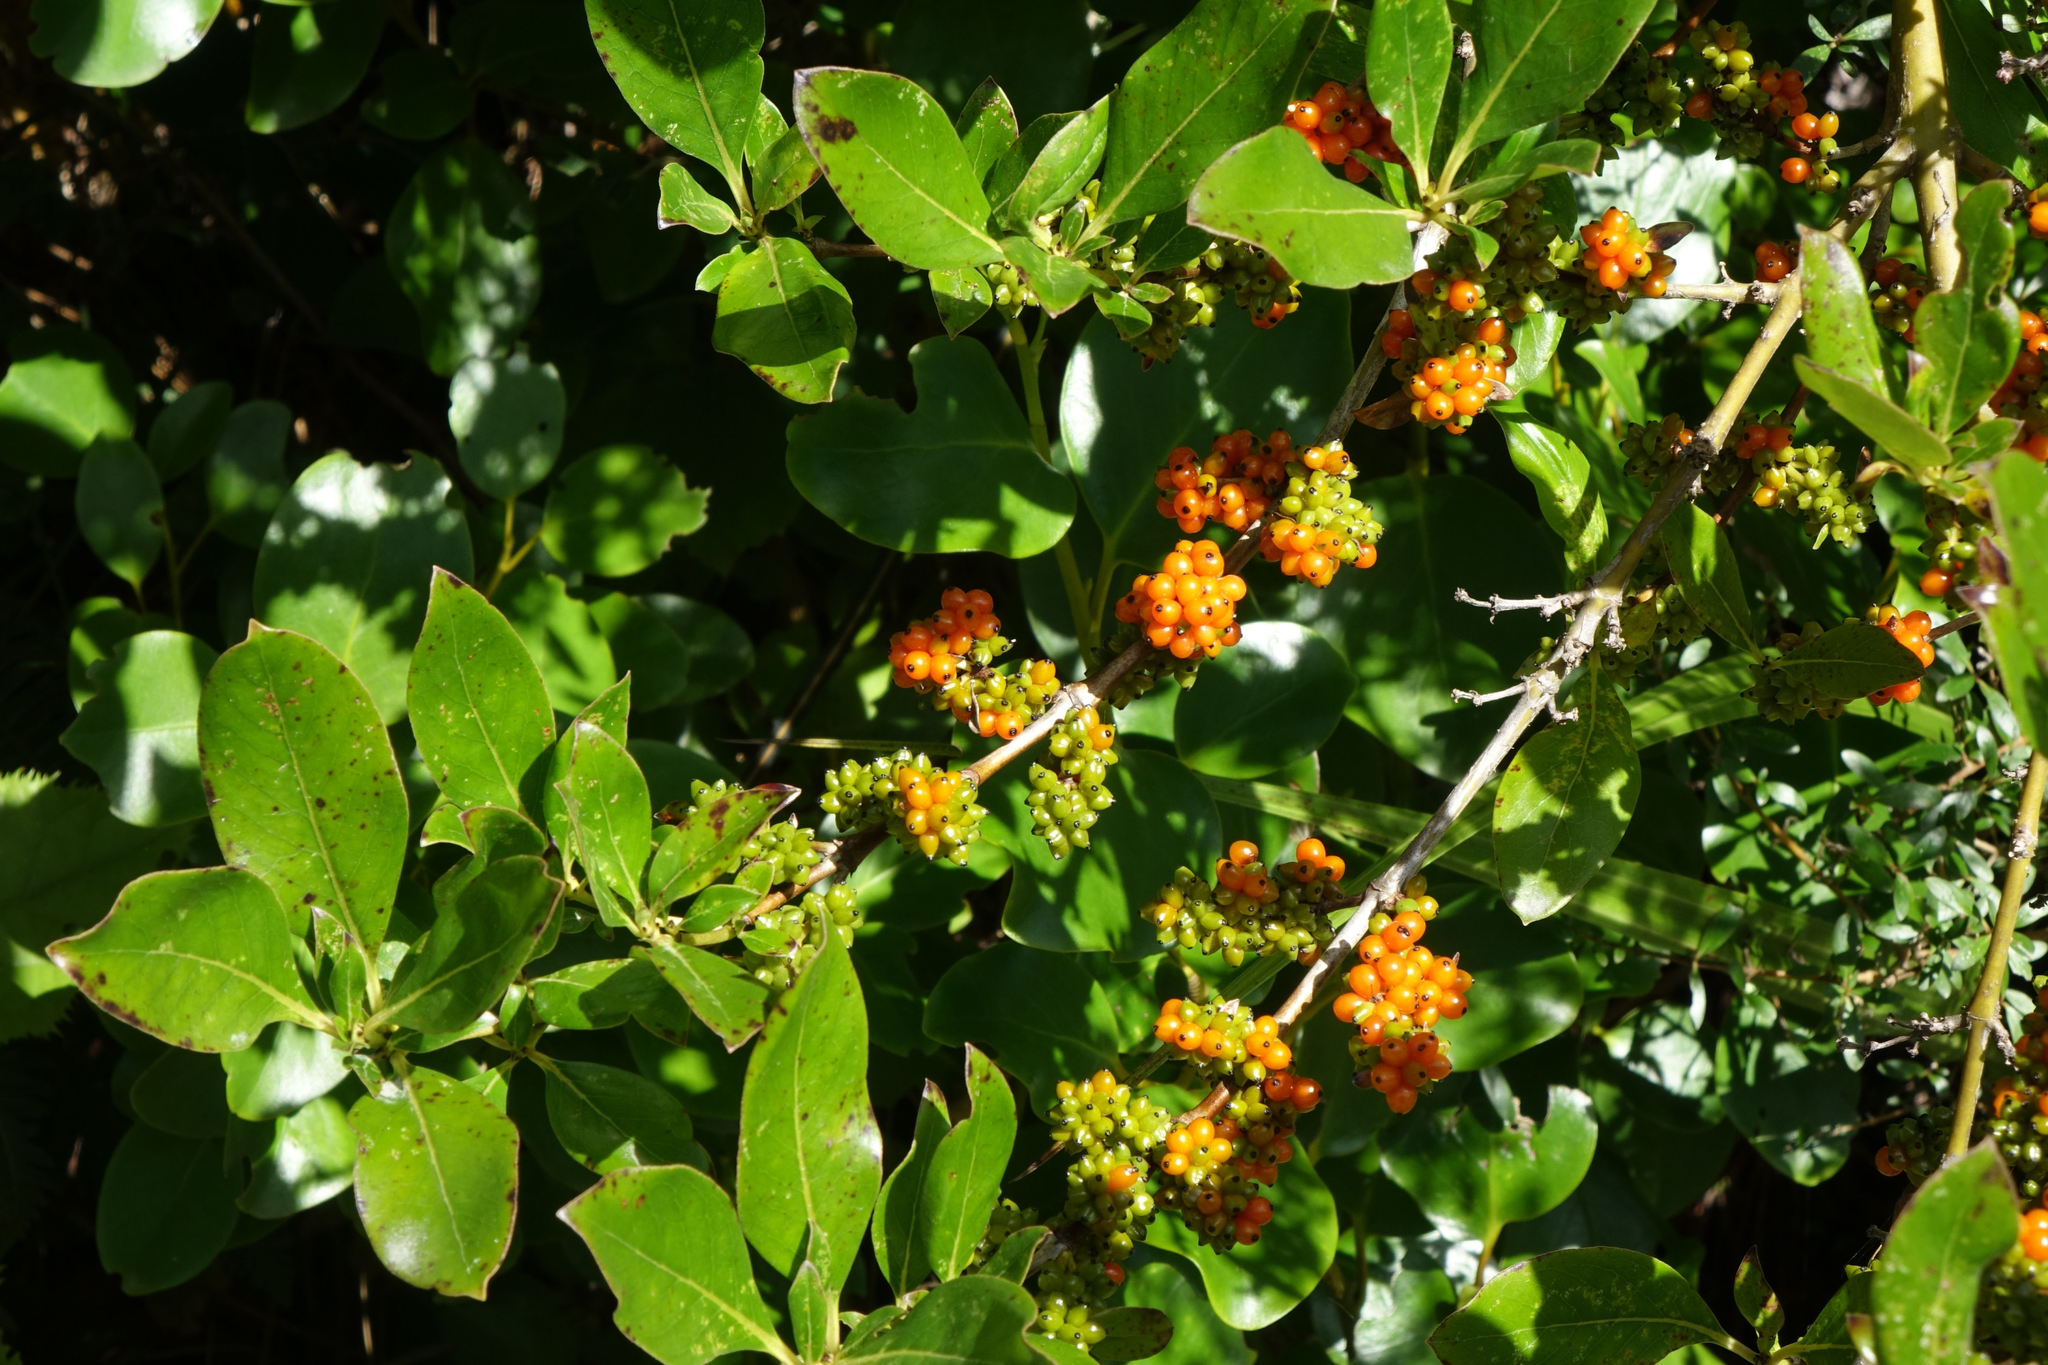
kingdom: Plantae
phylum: Tracheophyta
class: Magnoliopsida
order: Gentianales
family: Rubiaceae
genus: Coprosma
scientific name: Coprosma robusta
